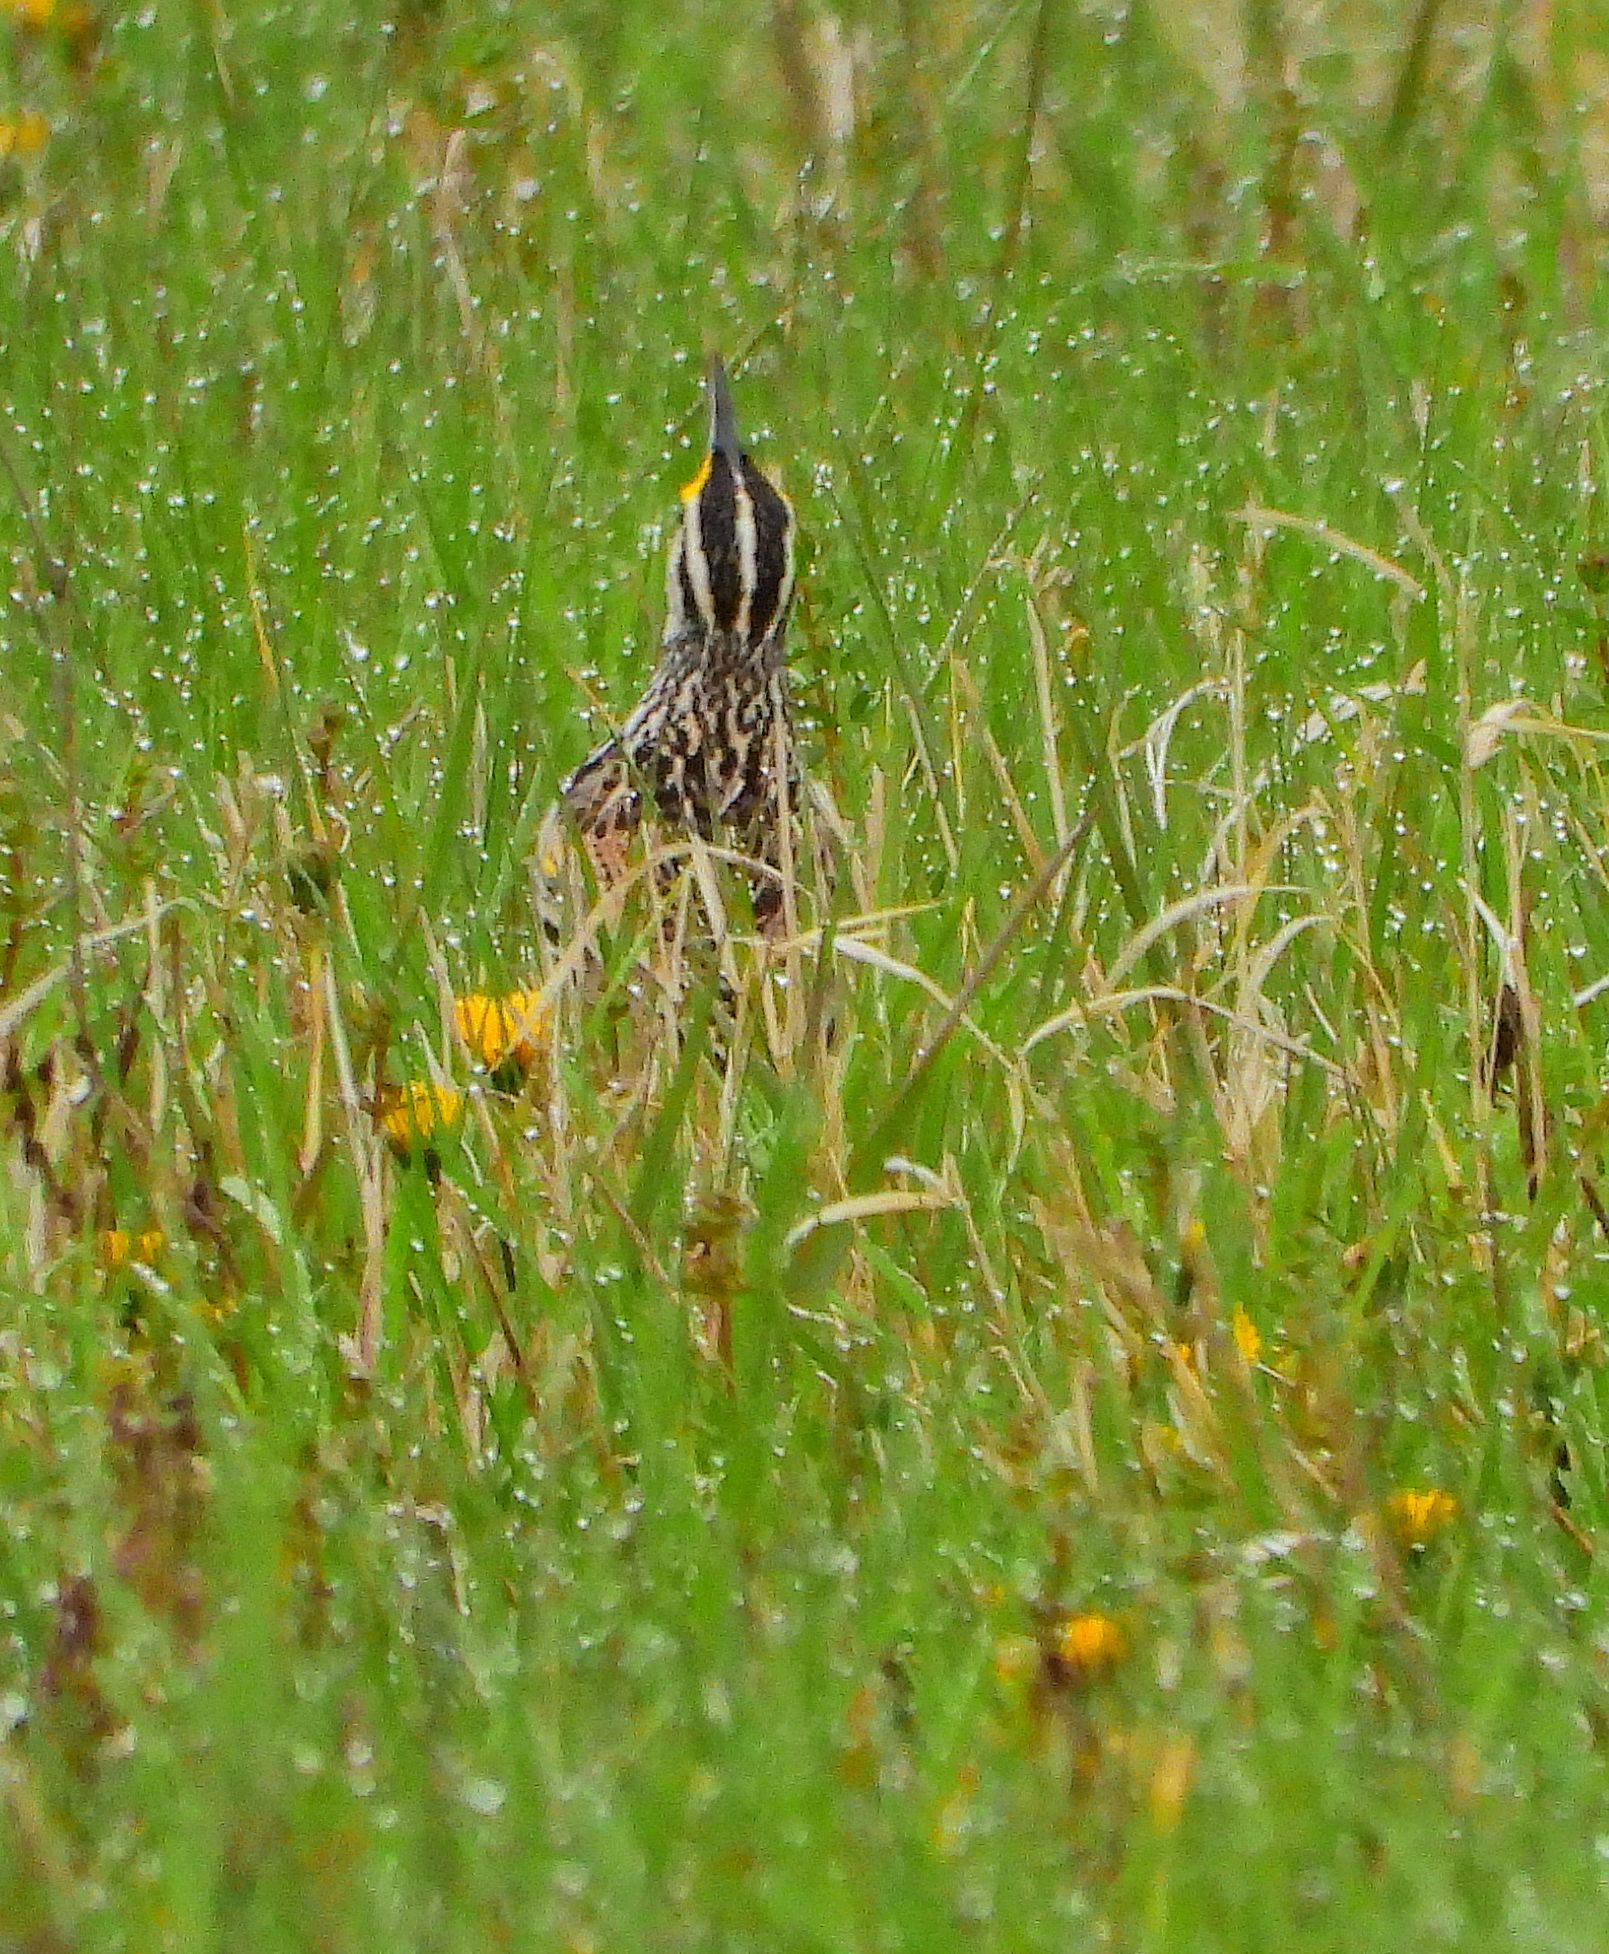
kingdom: Animalia
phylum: Chordata
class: Aves
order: Passeriformes
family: Icteridae
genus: Sturnella
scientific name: Sturnella magna
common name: Eastern meadowlark
